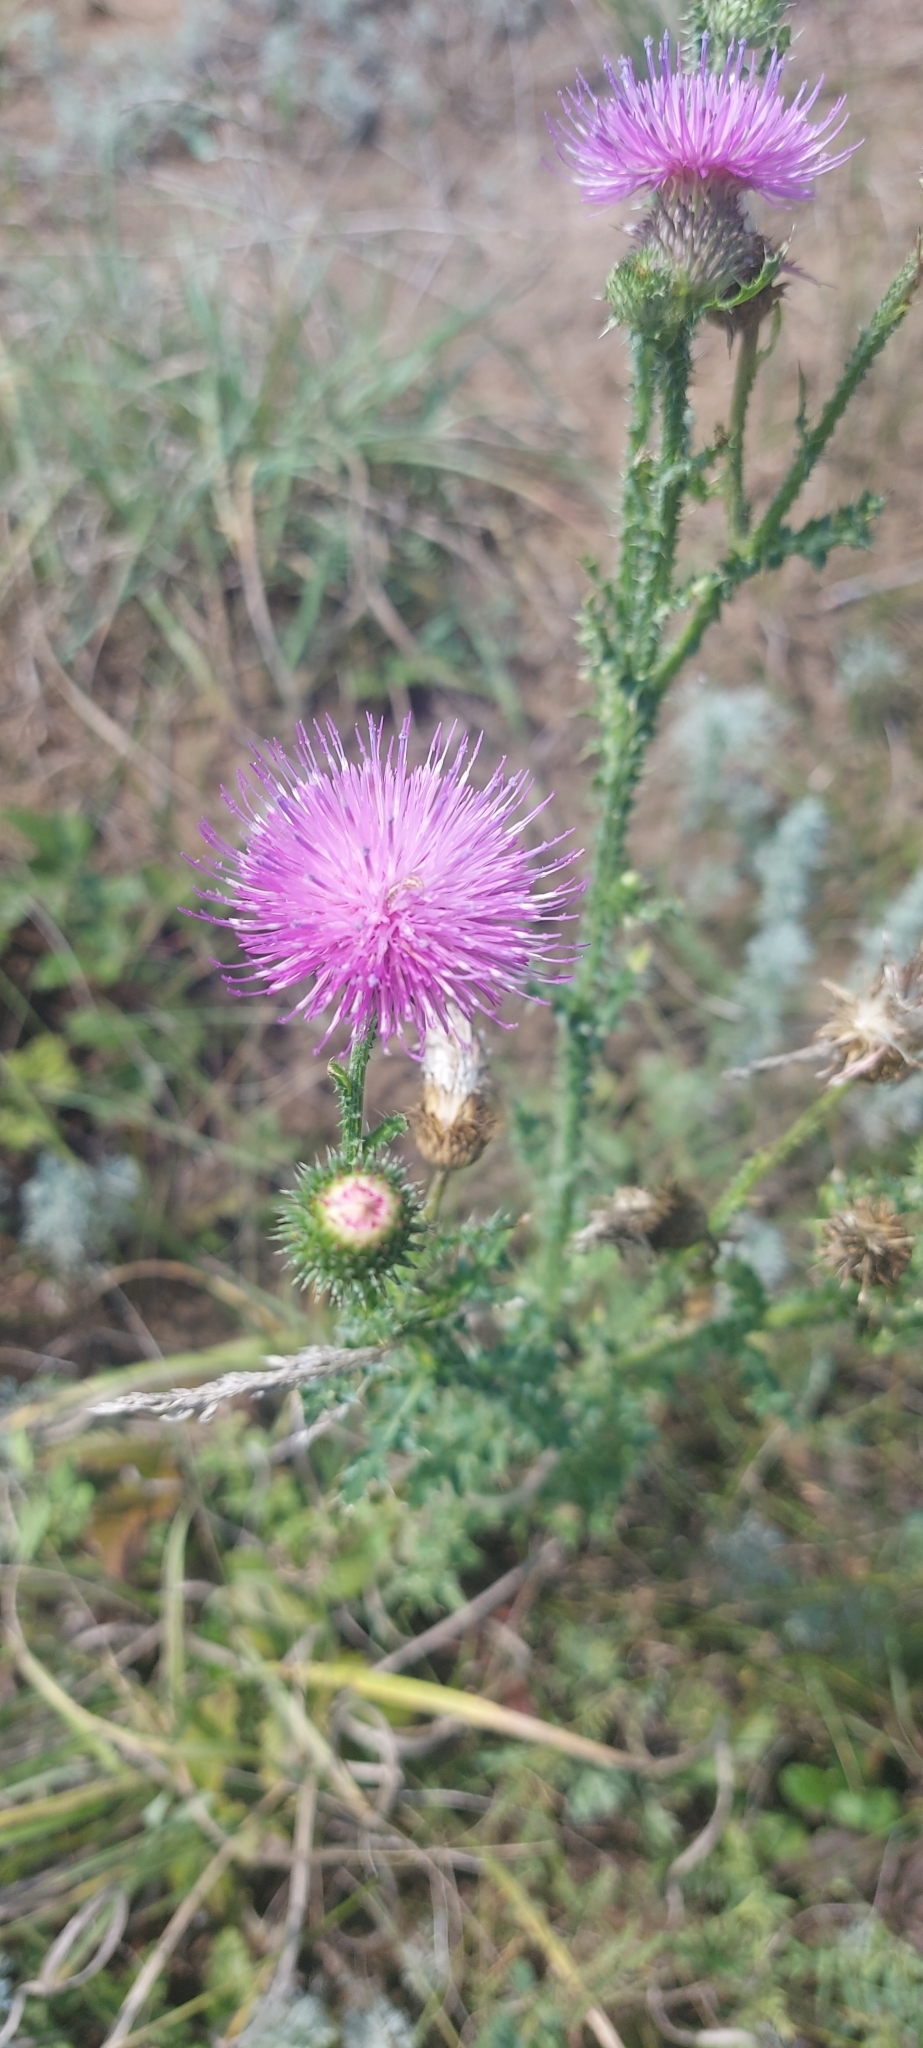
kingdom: Plantae
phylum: Tracheophyta
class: Magnoliopsida
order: Asterales
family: Asteraceae
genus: Carduus
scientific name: Carduus acanthoides
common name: Plumeless thistle
